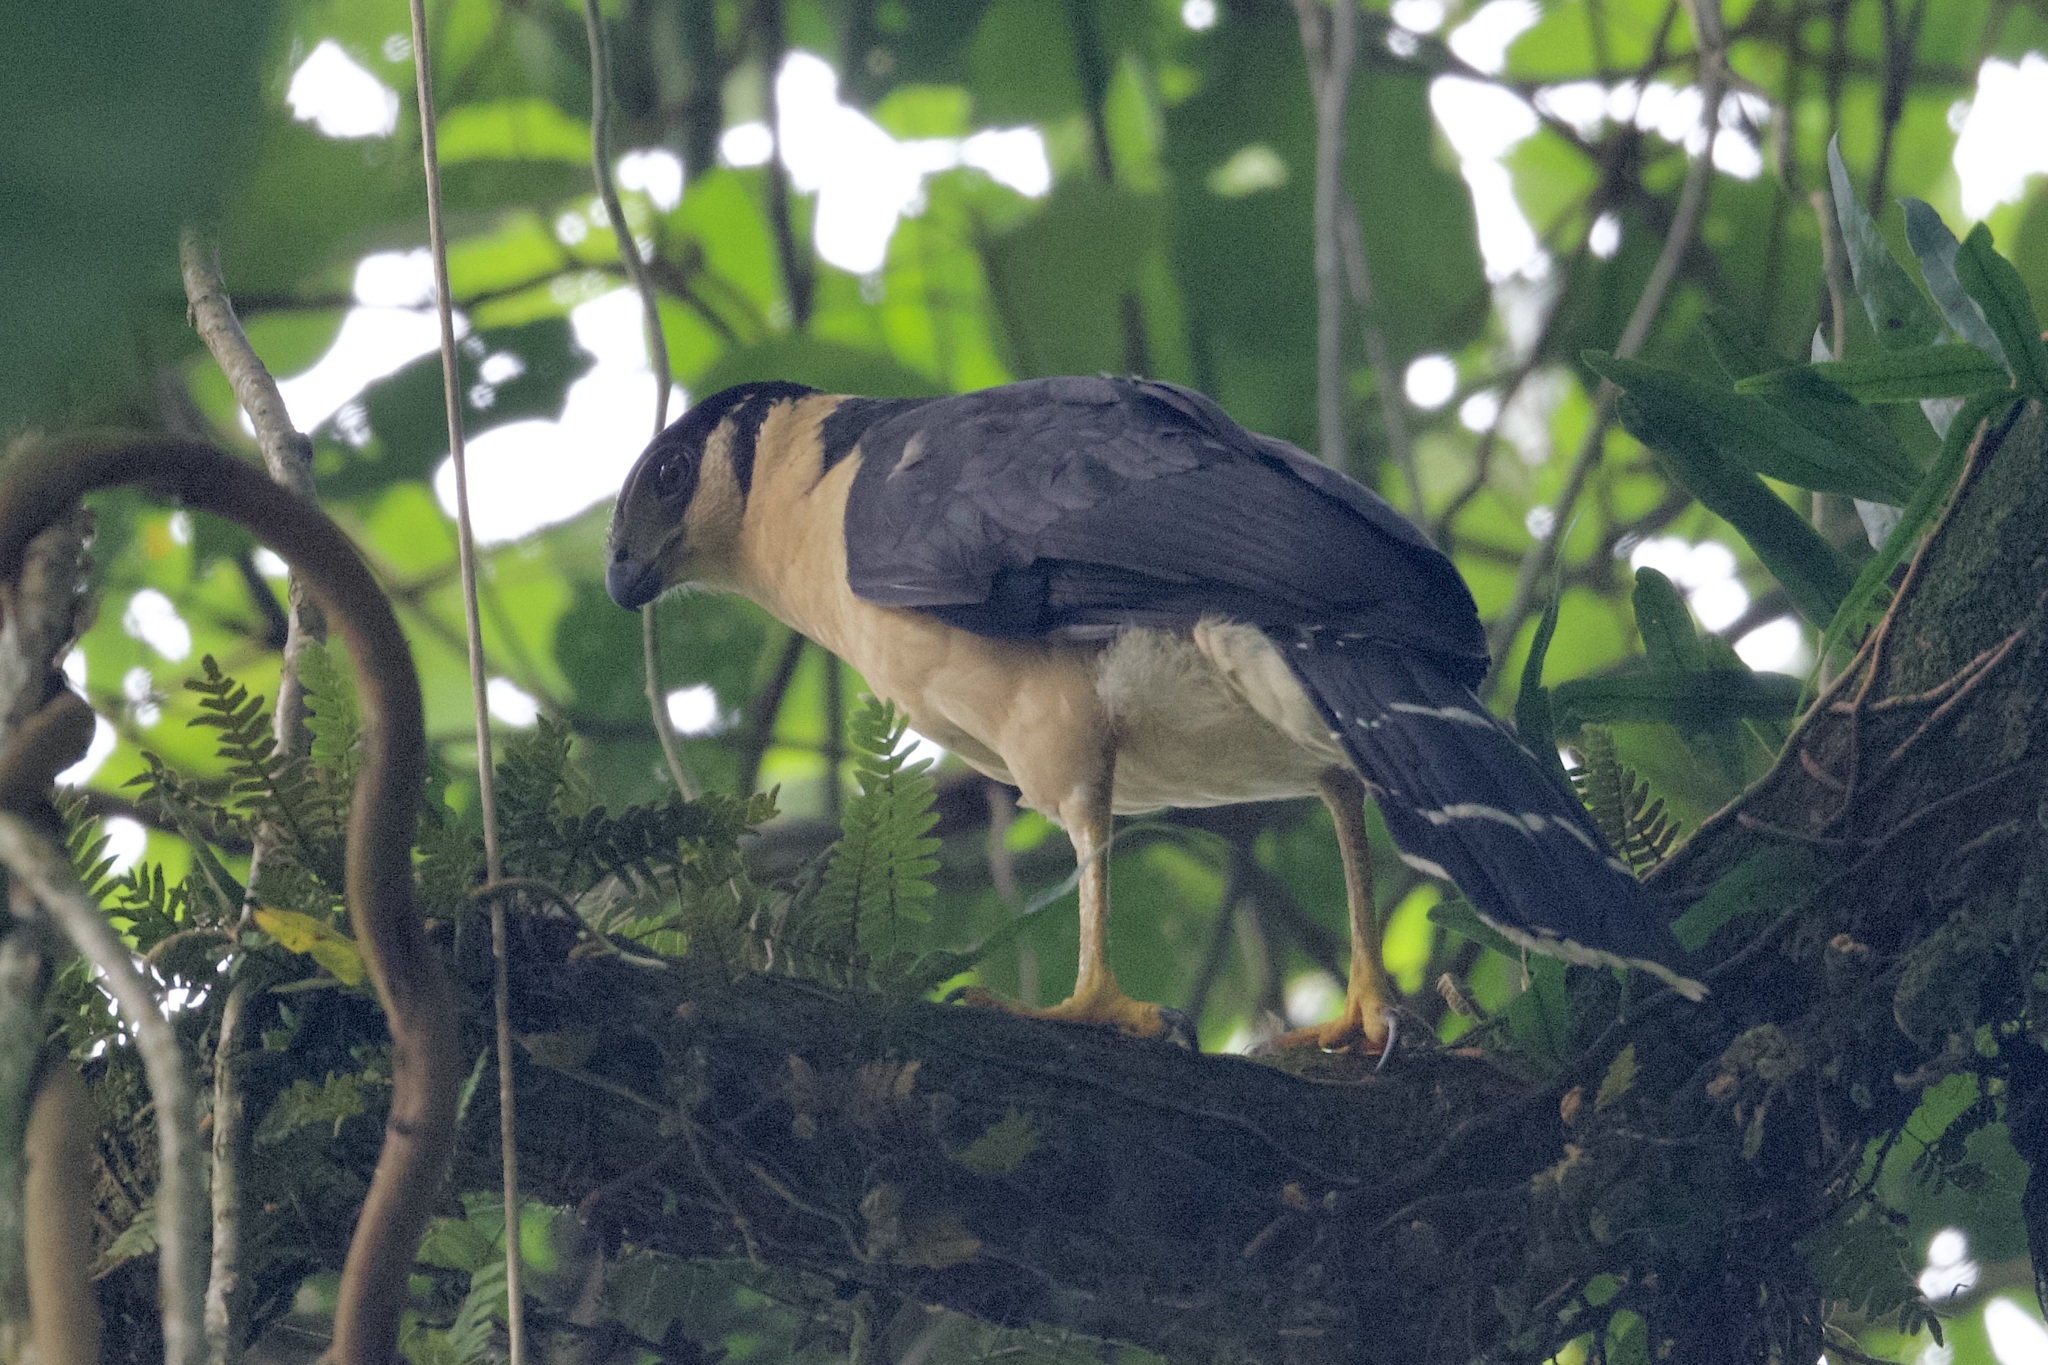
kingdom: Animalia
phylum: Chordata
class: Aves
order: Falconiformes
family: Falconidae
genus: Micrastur
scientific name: Micrastur semitorquatus
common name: Collared forest-falcon
